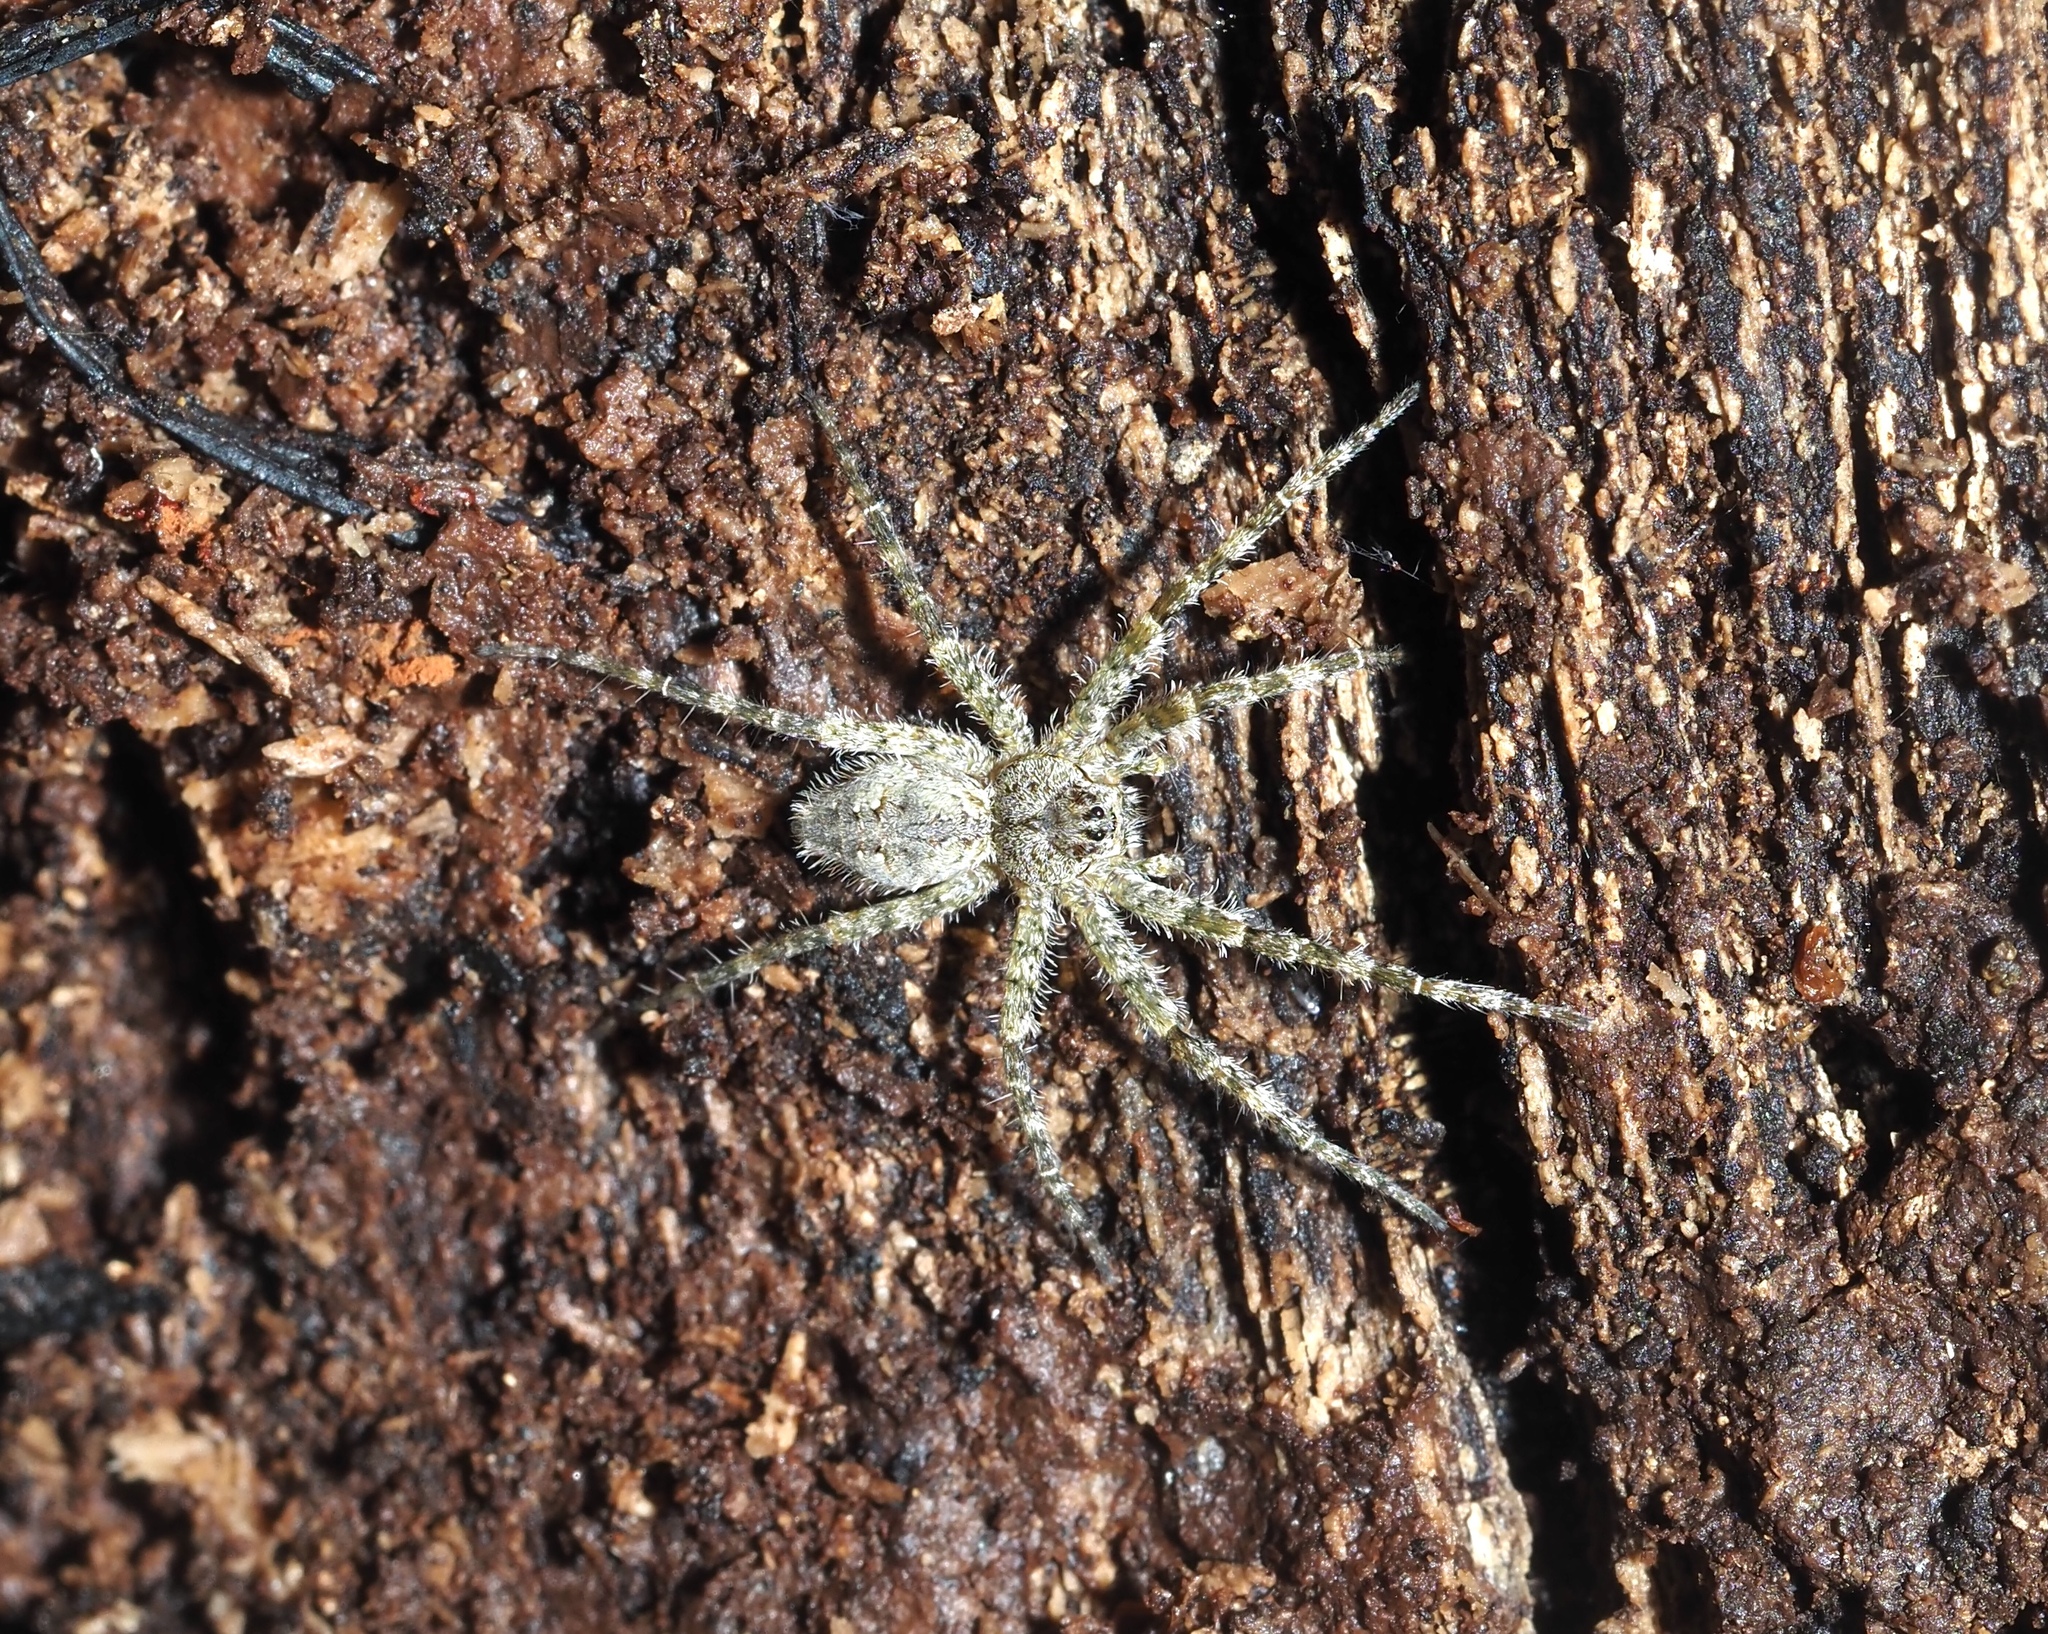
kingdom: Animalia
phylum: Arthropoda
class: Arachnida
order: Araneae
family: Pisauridae
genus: Dolomedes
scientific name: Dolomedes albineus
